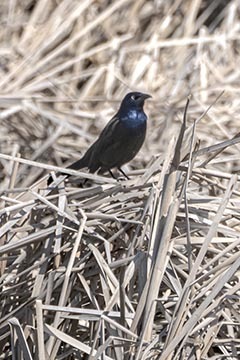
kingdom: Animalia
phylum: Chordata
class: Aves
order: Passeriformes
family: Icteridae
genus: Quiscalus
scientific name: Quiscalus quiscula
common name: Common grackle
